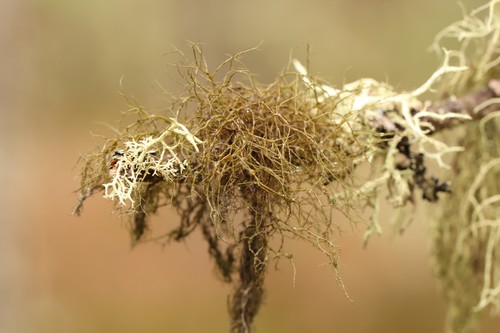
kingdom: Fungi
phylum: Ascomycota
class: Lecanoromycetes
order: Lecanorales
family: Parmeliaceae
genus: Bryoria
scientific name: Bryoria
